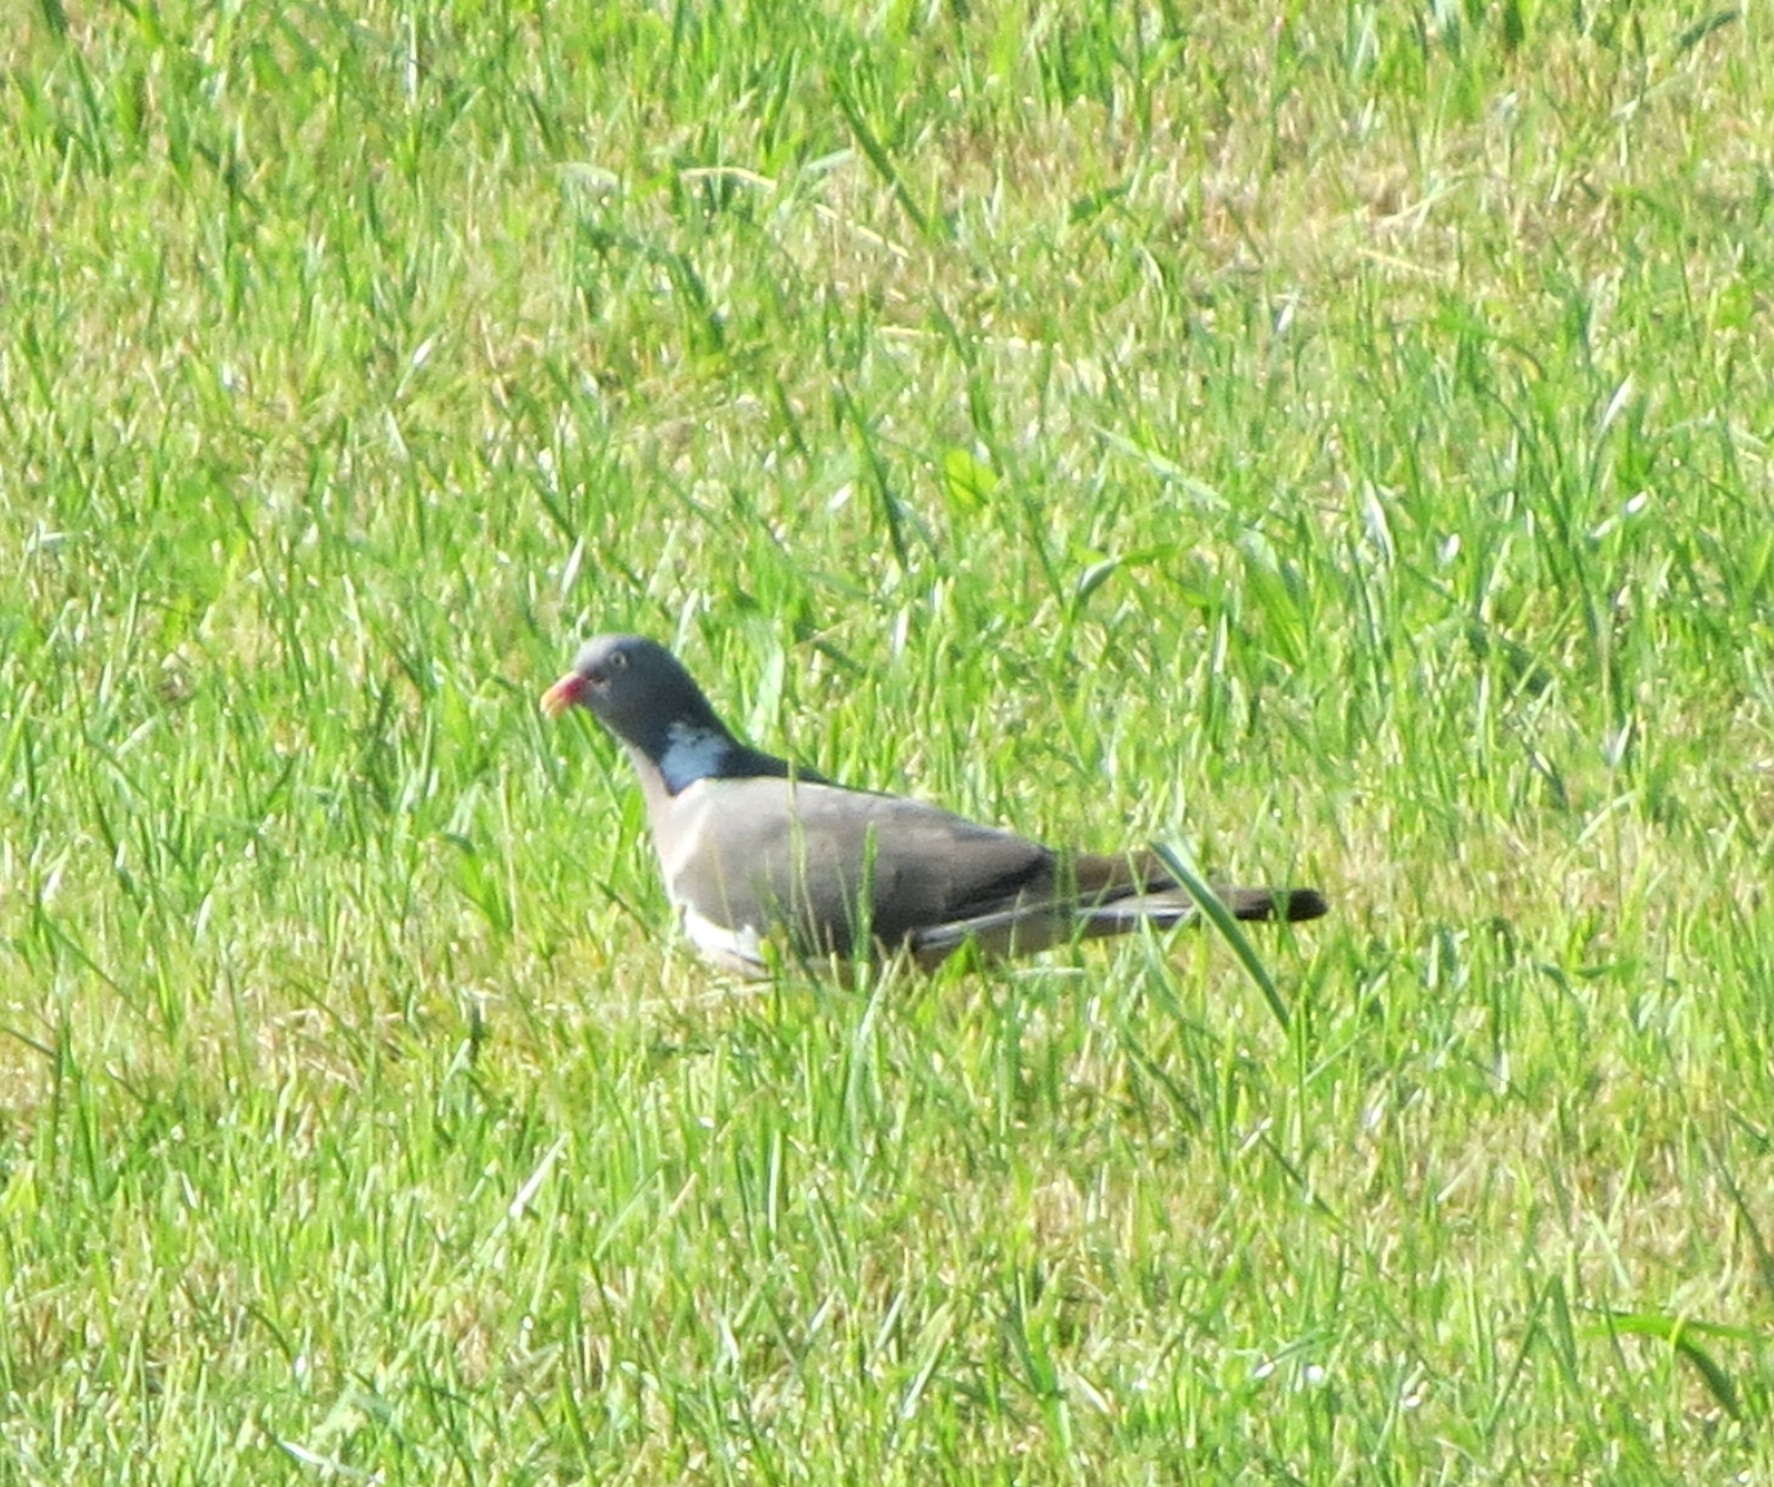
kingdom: Animalia
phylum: Chordata
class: Aves
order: Columbiformes
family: Columbidae
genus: Columba
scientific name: Columba palumbus
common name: Common wood pigeon
